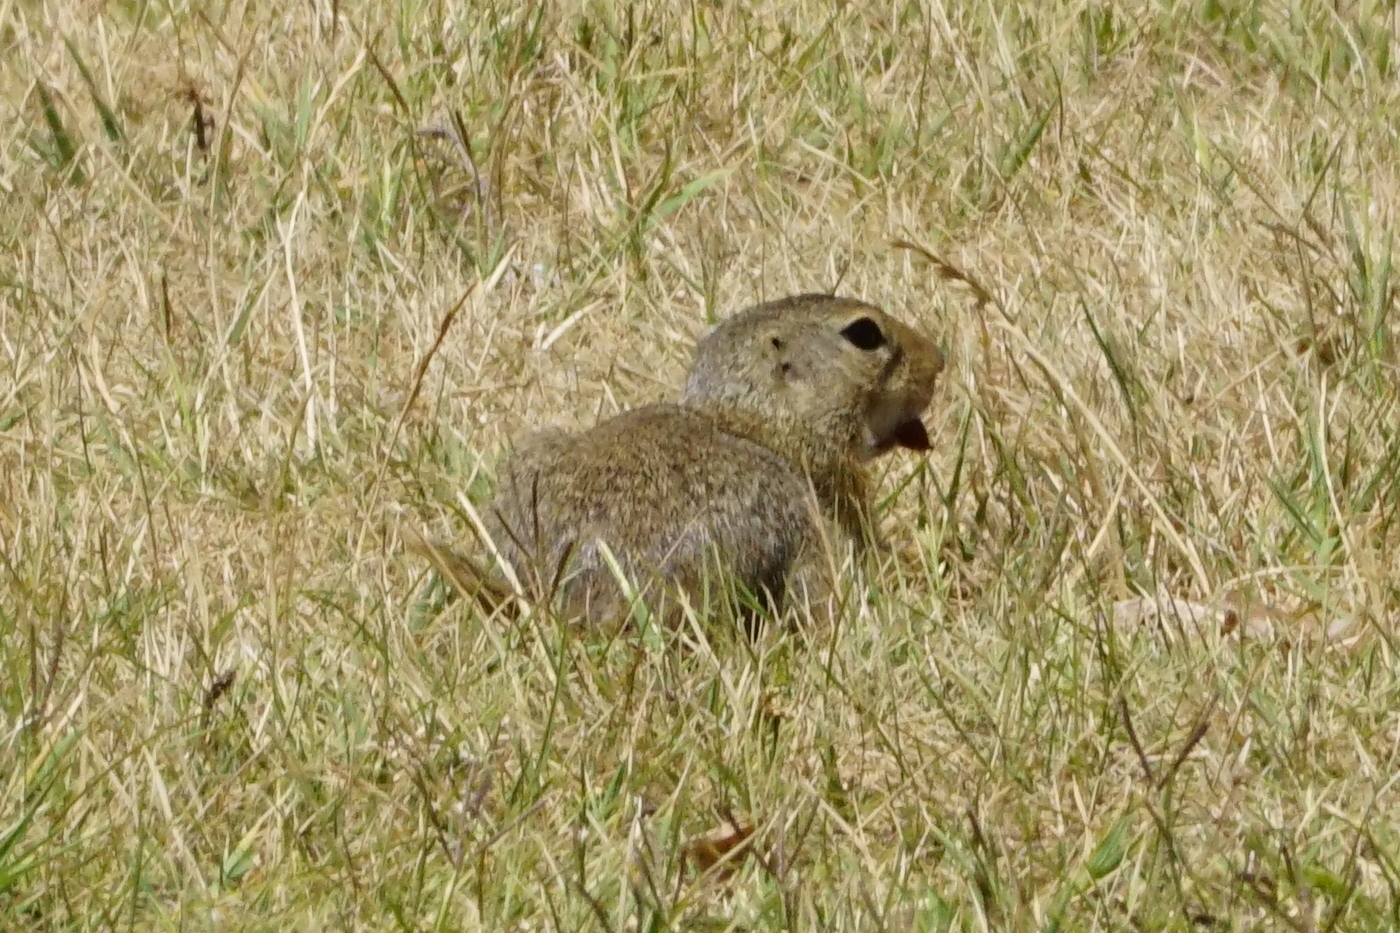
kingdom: Animalia
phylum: Chordata
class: Mammalia
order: Rodentia
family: Sciuridae
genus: Spermophilus
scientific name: Spermophilus citellus
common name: European ground squirrel
